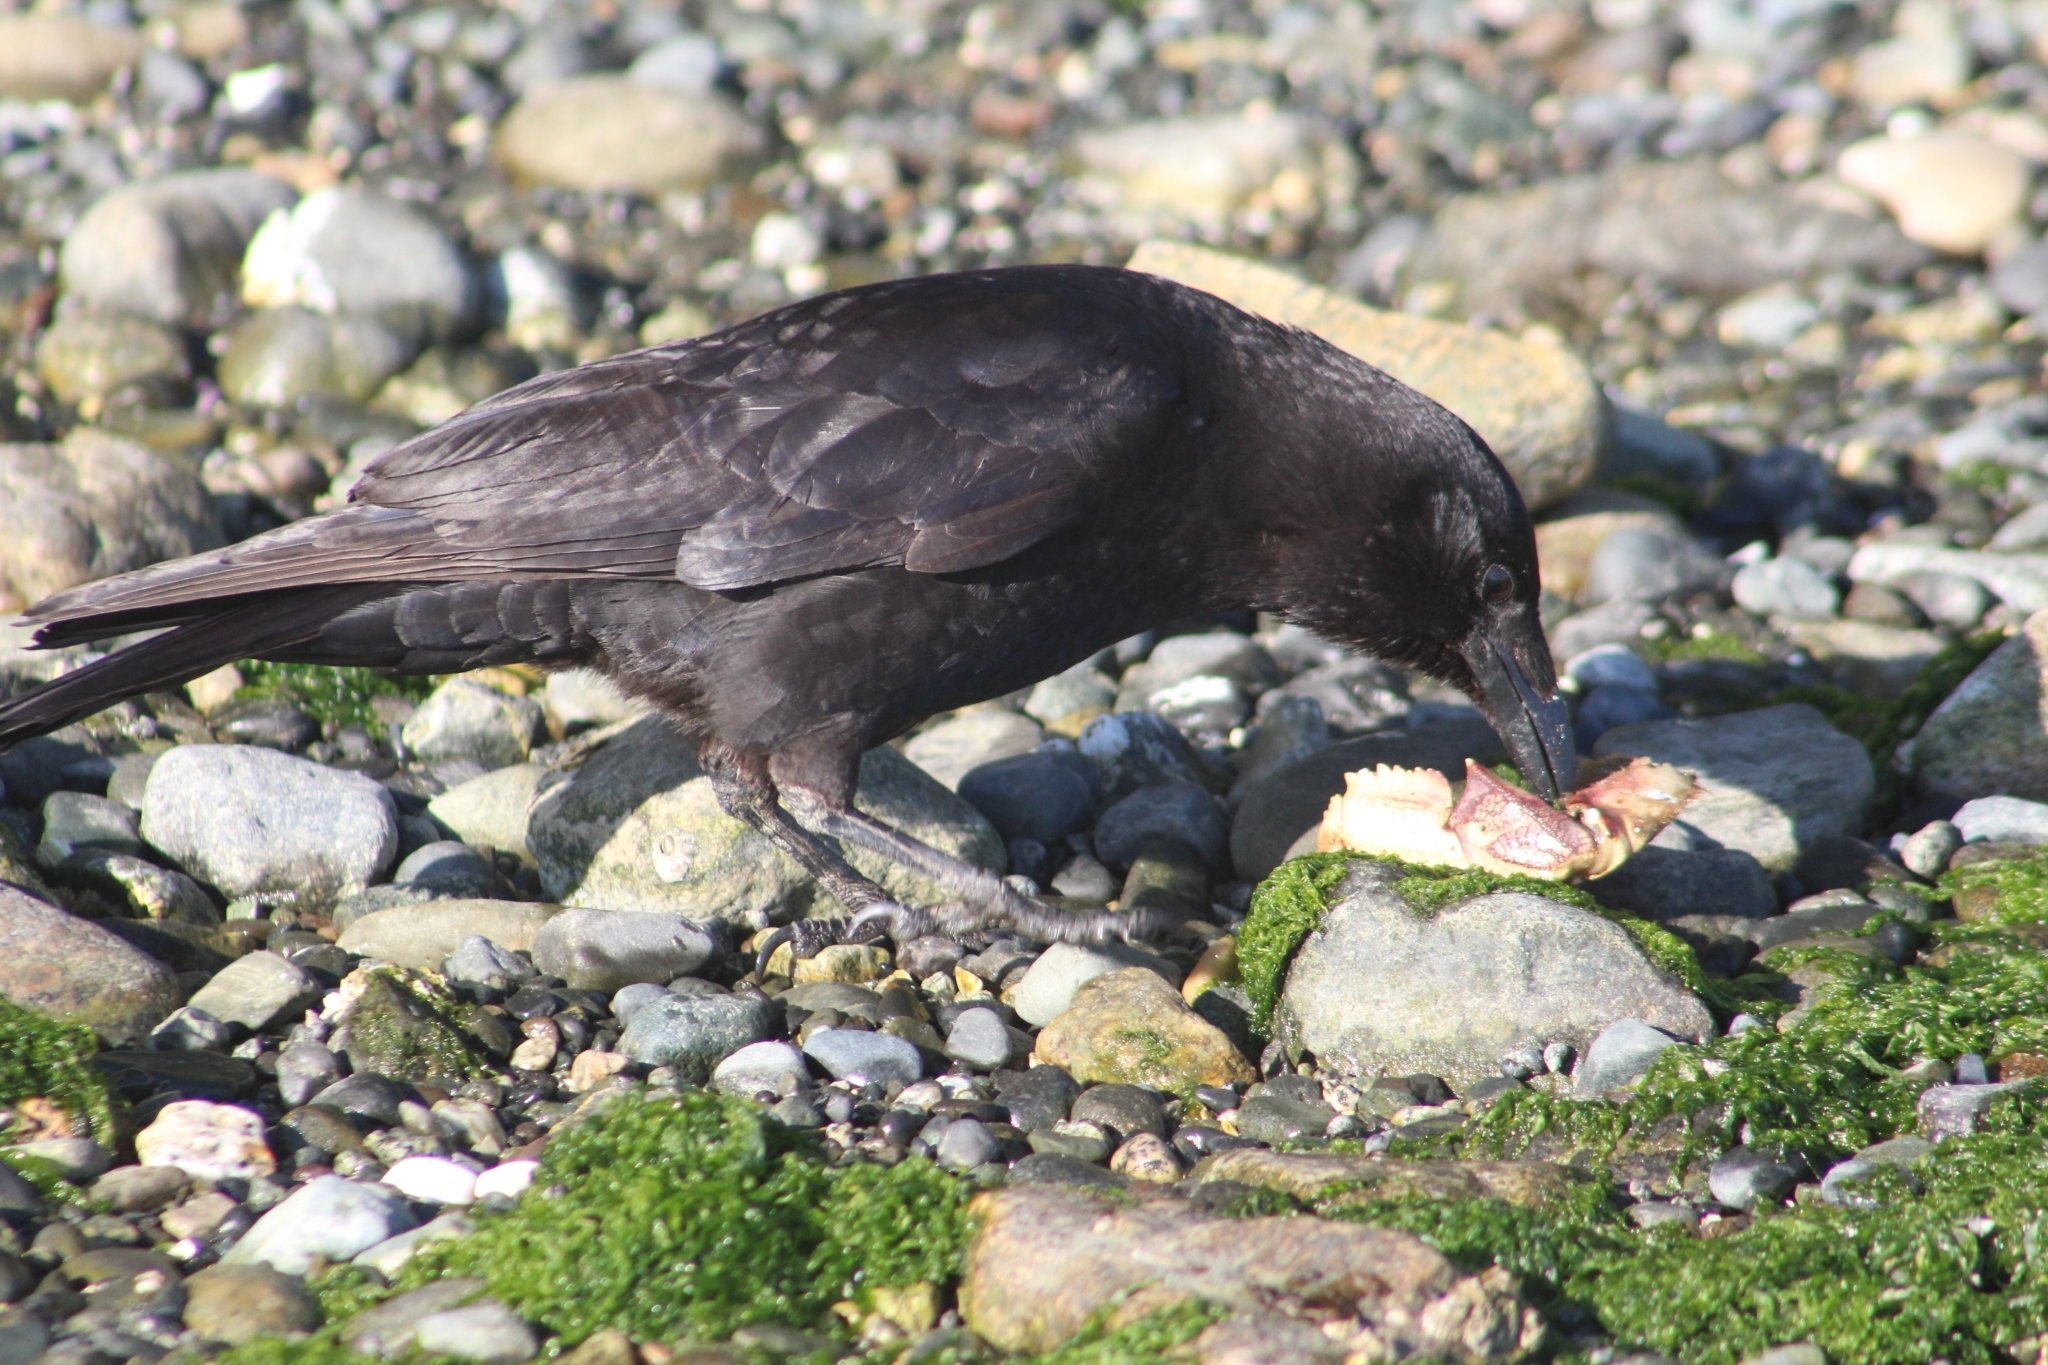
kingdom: Animalia
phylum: Chordata
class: Aves
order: Passeriformes
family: Corvidae
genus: Corvus
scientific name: Corvus brachyrhynchos
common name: American crow
